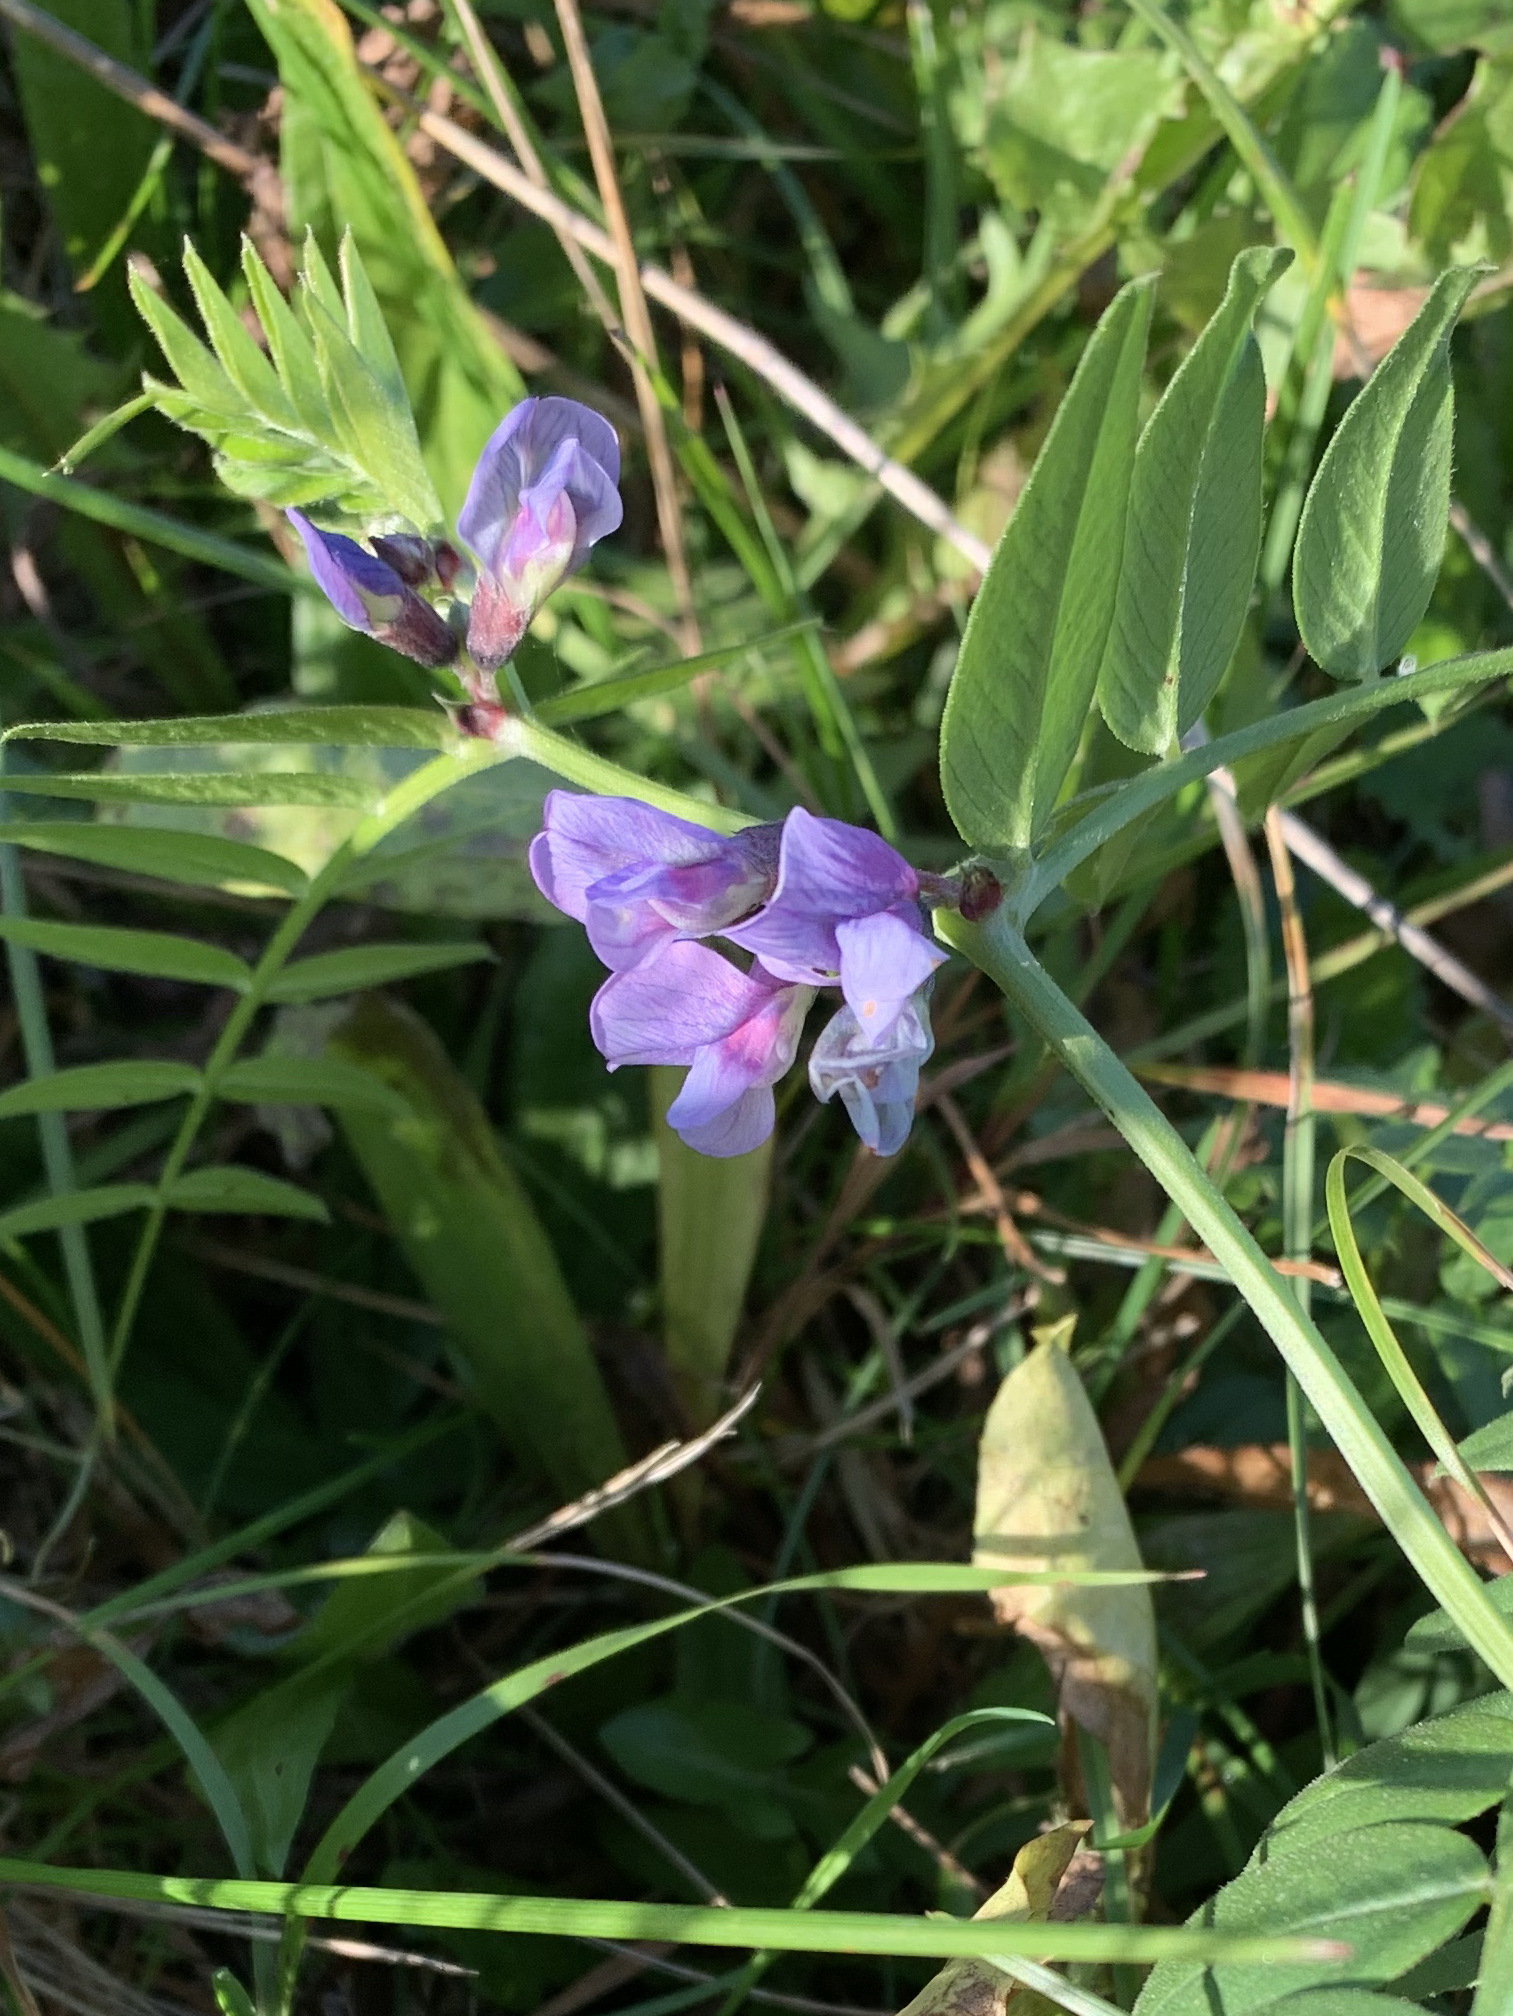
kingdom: Plantae
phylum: Tracheophyta
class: Magnoliopsida
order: Fabales
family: Fabaceae
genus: Vicia
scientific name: Vicia sepium
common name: Bush vetch
